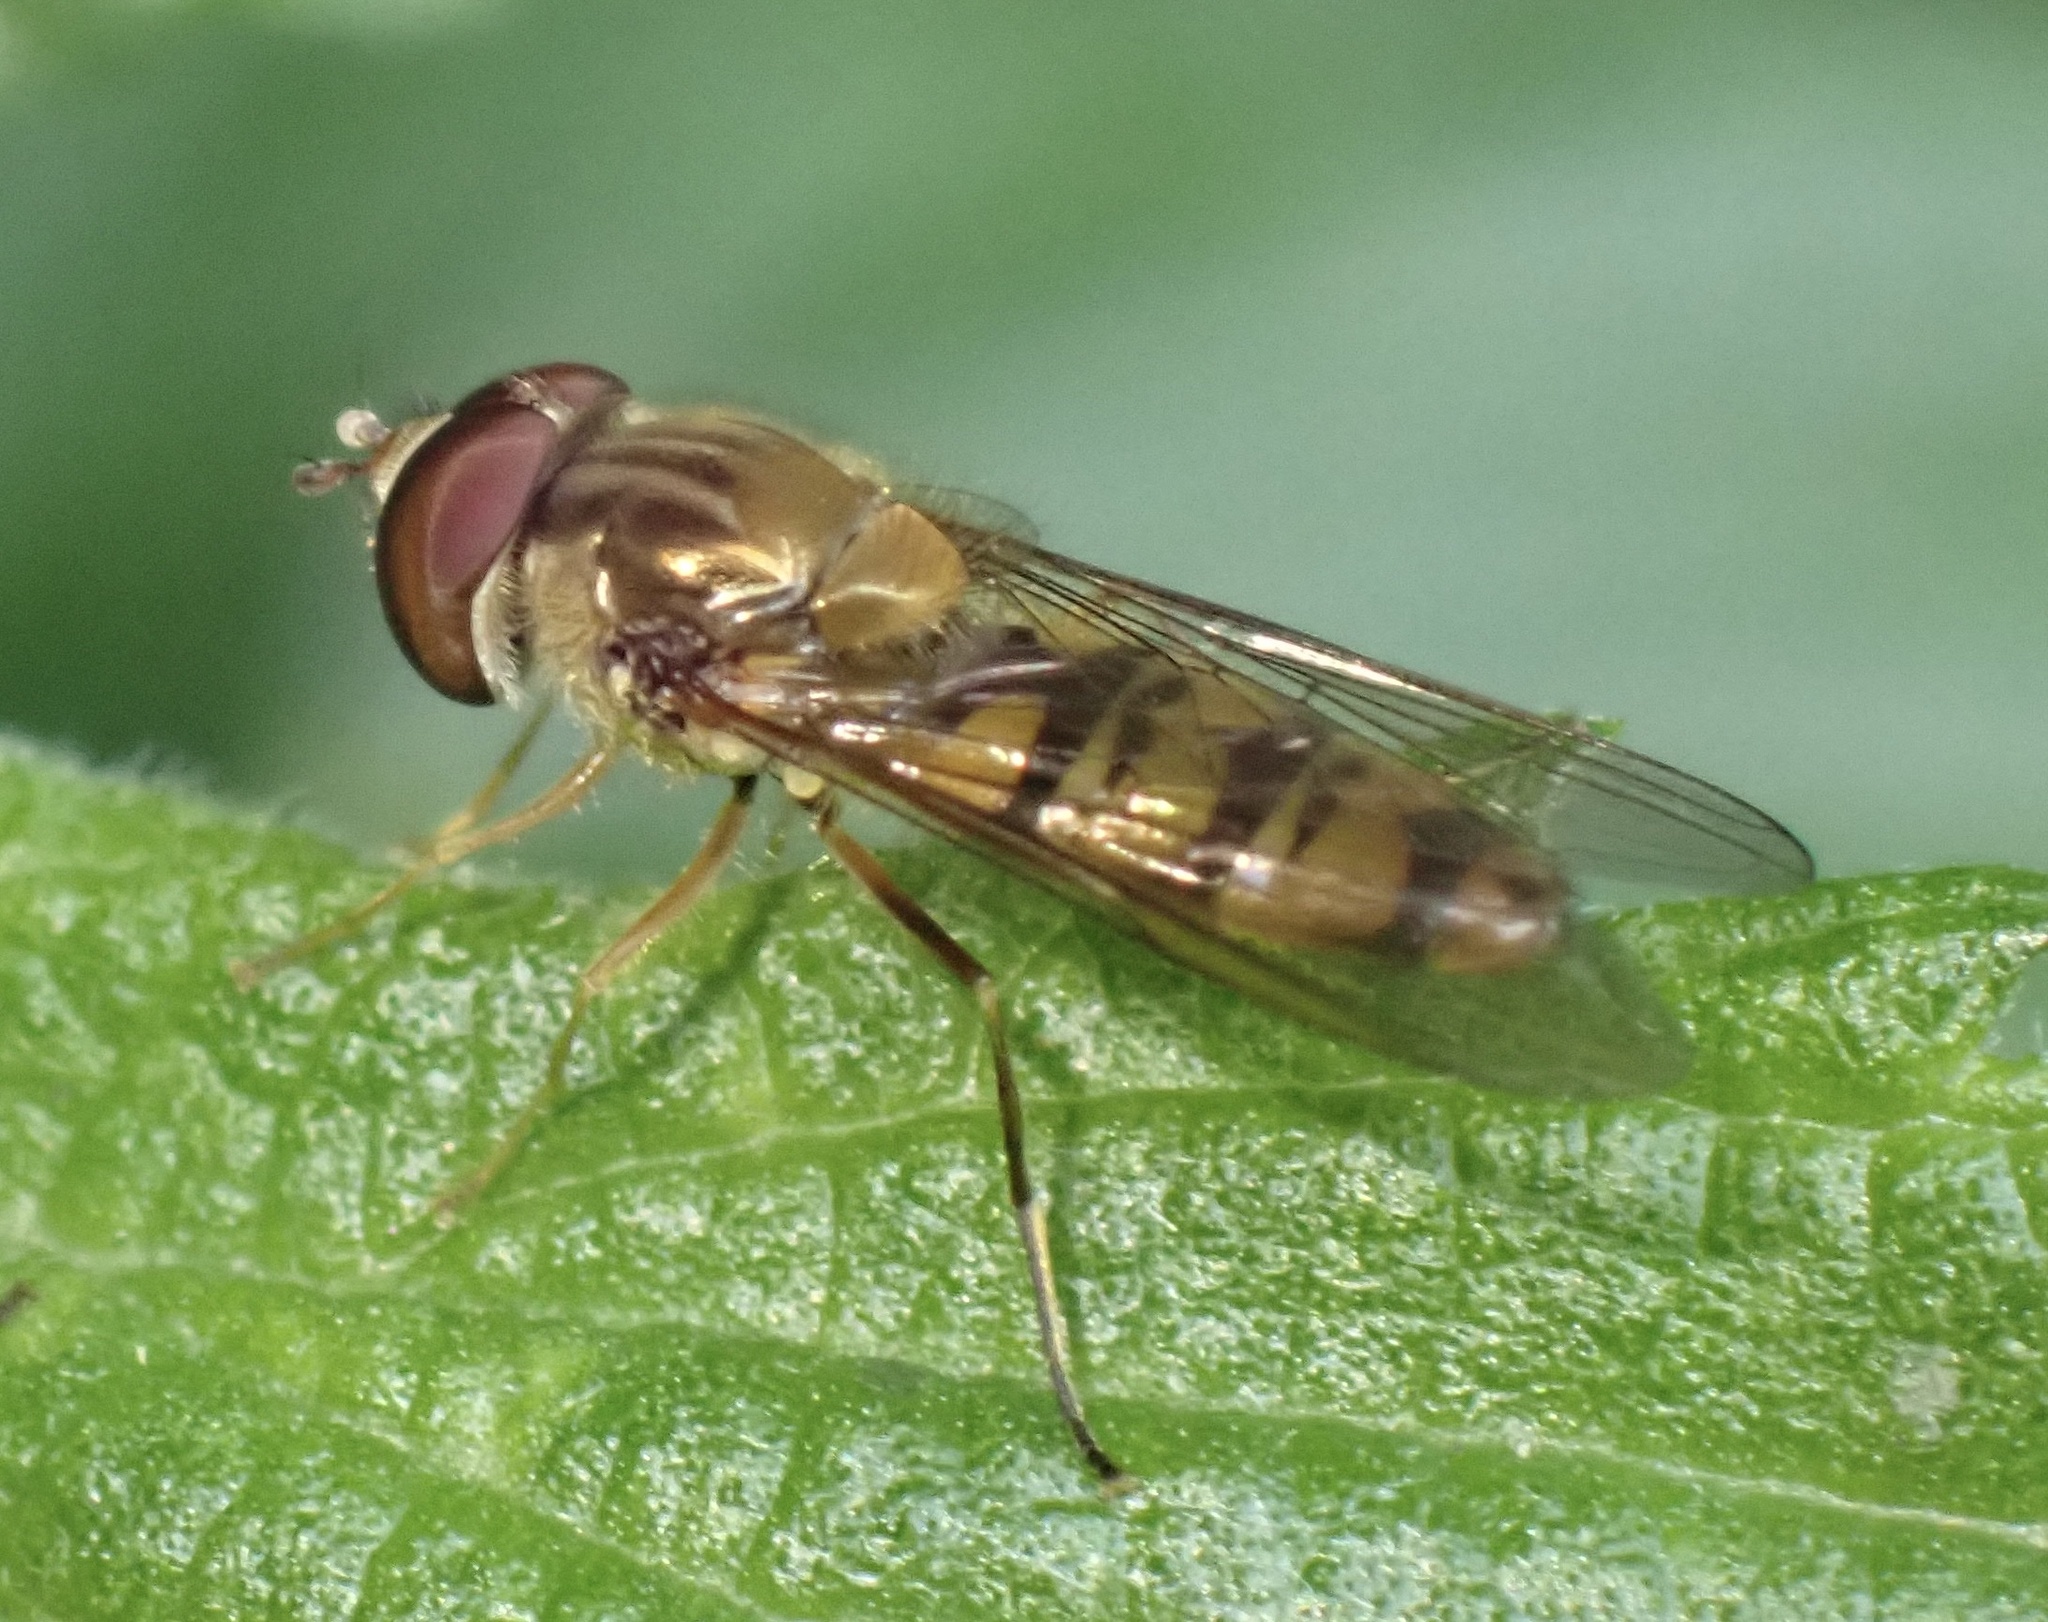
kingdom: Animalia
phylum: Arthropoda
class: Insecta
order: Diptera
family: Syrphidae
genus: Episyrphus
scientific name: Episyrphus balteatus
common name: Marmalade hoverfly
